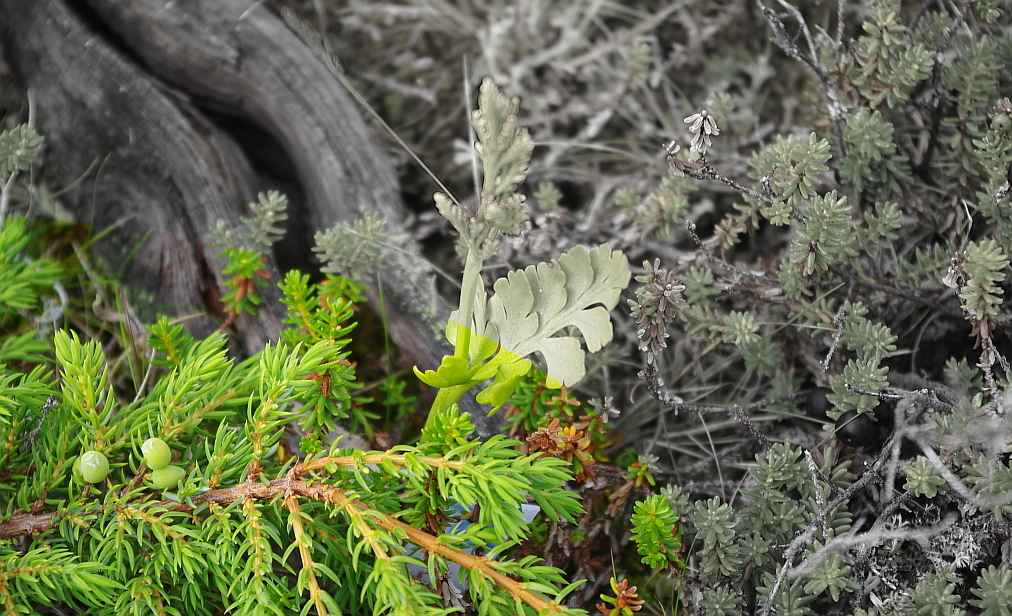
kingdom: Plantae
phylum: Tracheophyta
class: Pinopsida
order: Pinales
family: Cupressaceae
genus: Juniperus
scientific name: Juniperus communis
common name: Common juniper
